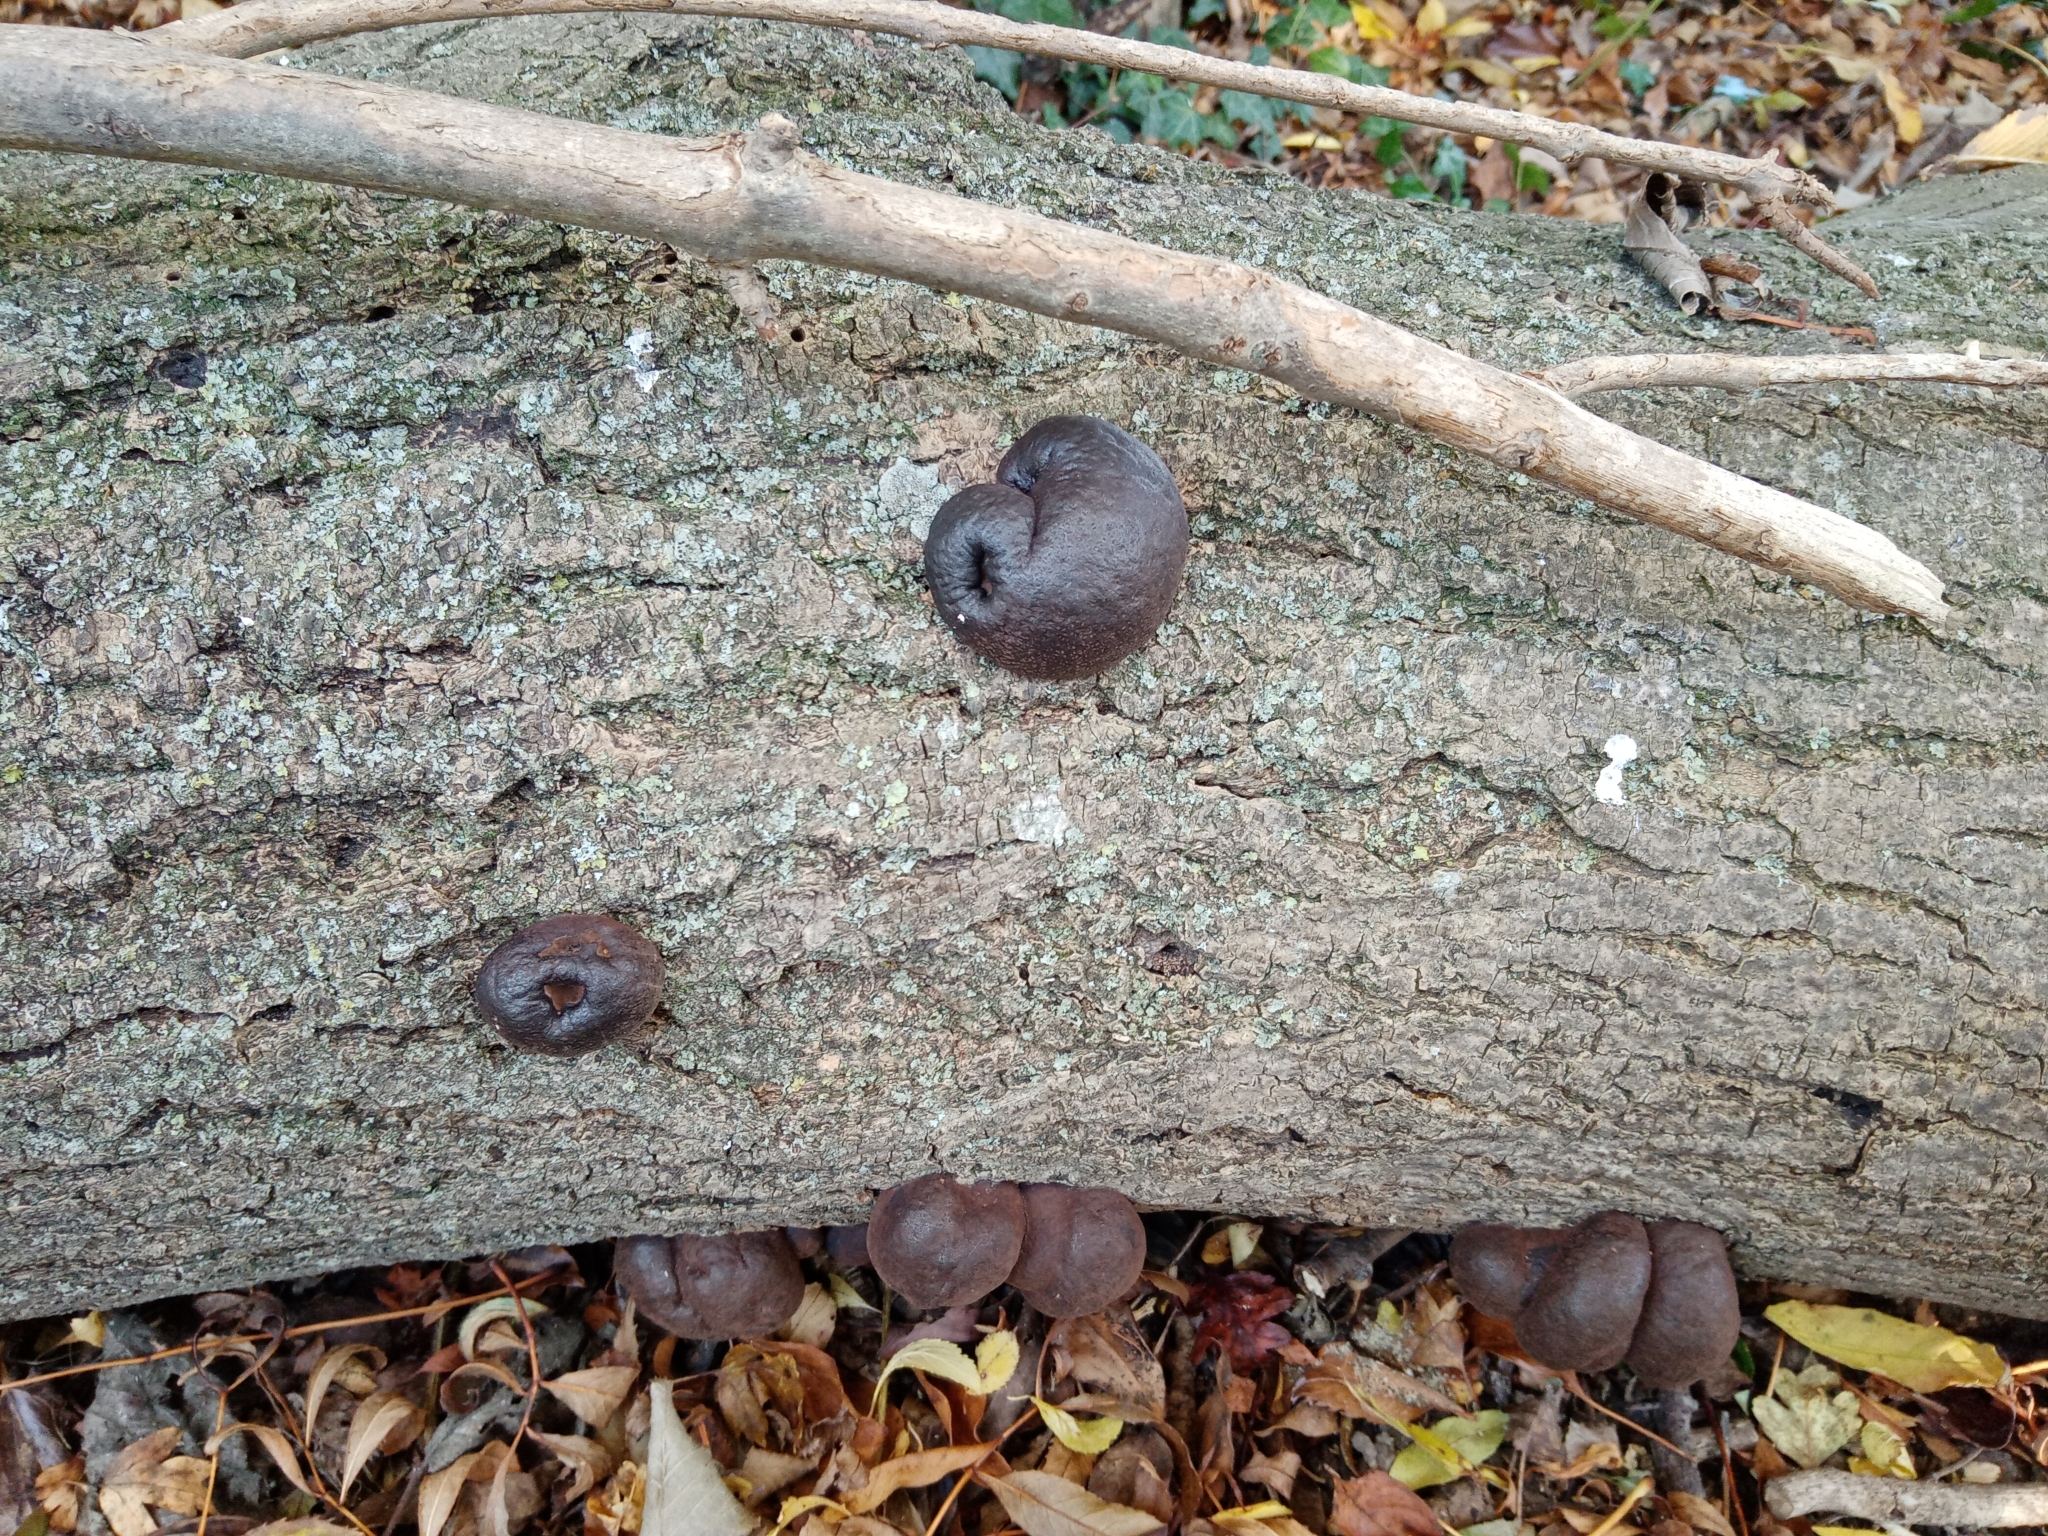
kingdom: Fungi
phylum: Ascomycota
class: Sordariomycetes
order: Xylariales
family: Hypoxylaceae
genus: Daldinia
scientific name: Daldinia concentrica
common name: Cramp balls
